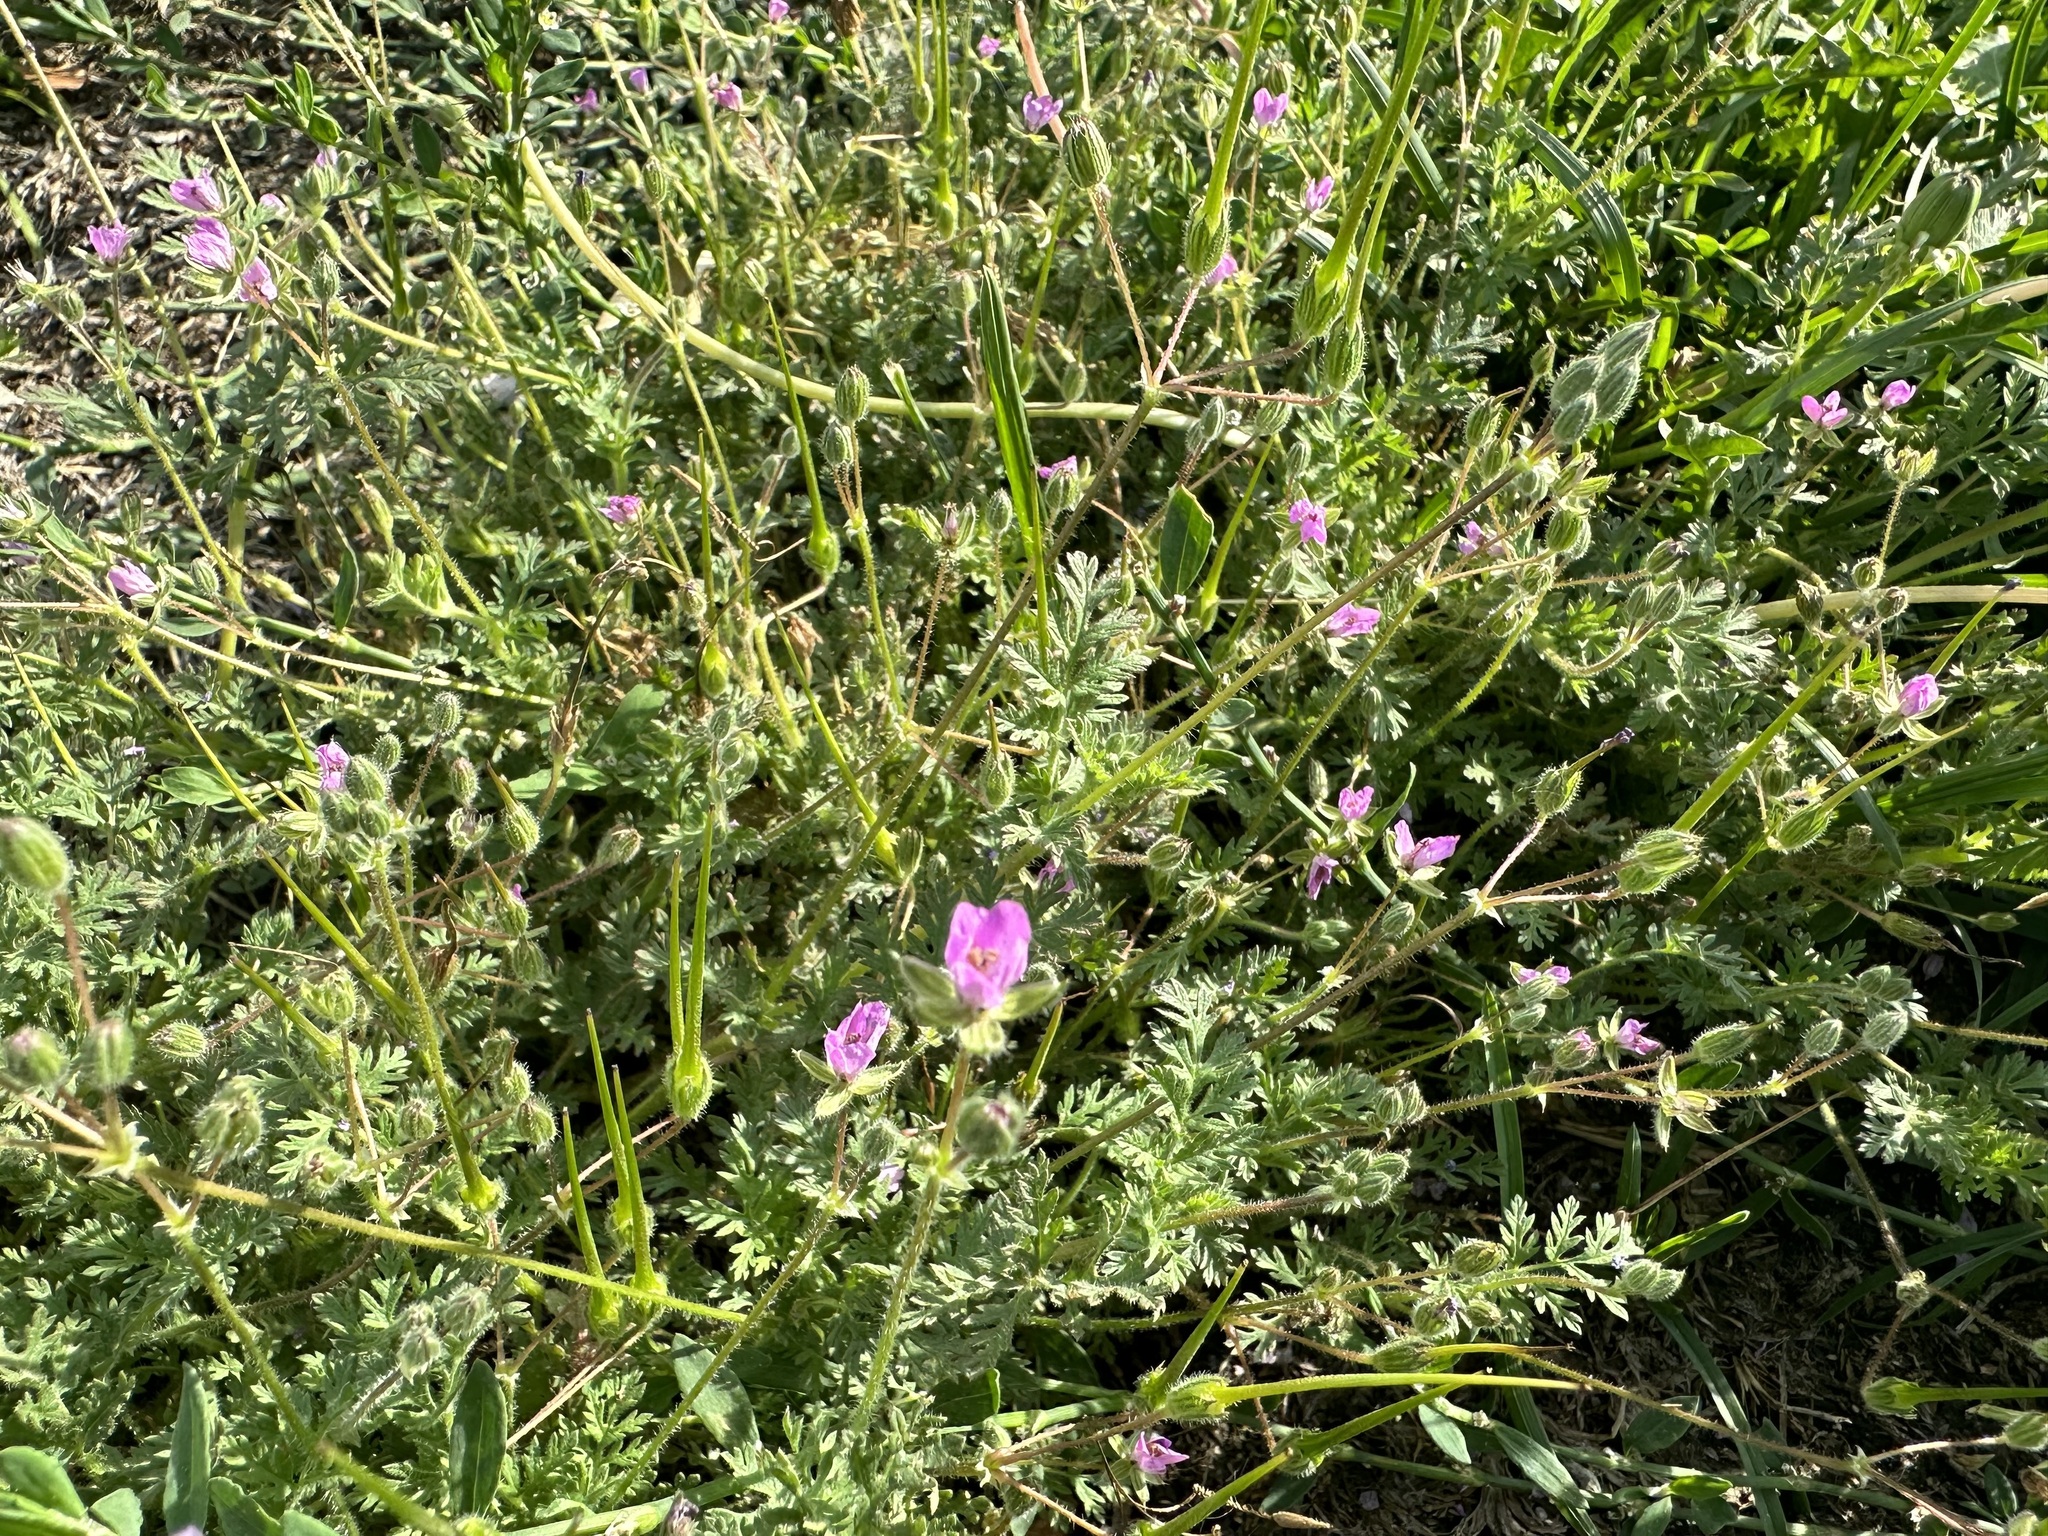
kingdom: Plantae
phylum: Tracheophyta
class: Magnoliopsida
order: Geraniales
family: Geraniaceae
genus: Erodium
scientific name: Erodium cicutarium
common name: Common stork's-bill
